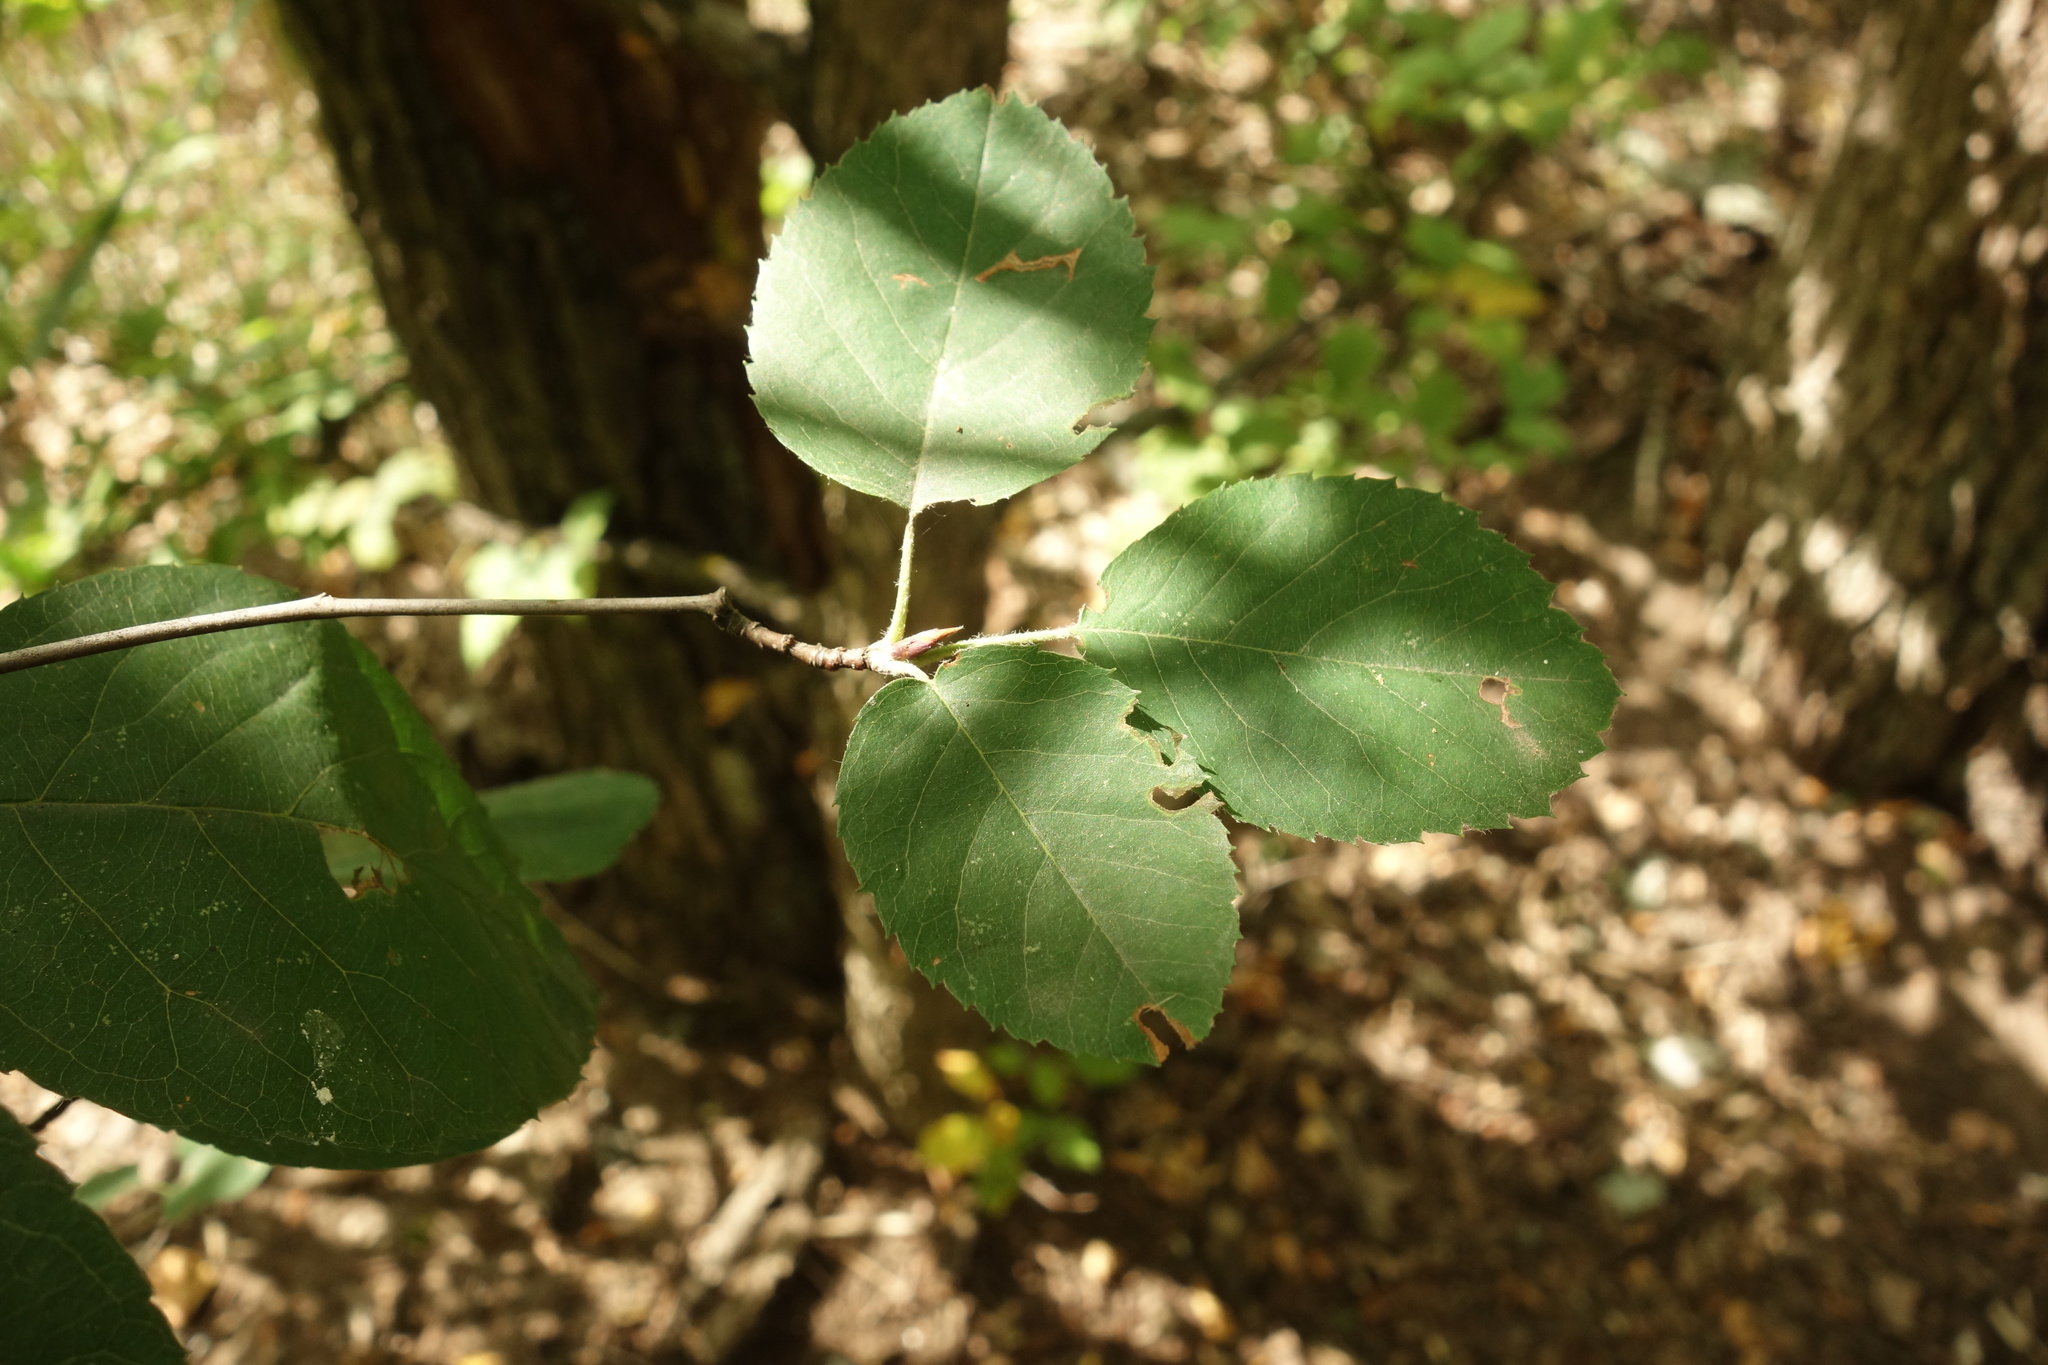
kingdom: Plantae
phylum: Tracheophyta
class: Magnoliopsida
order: Rosales
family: Rosaceae
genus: Amelanchier
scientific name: Amelanchier
